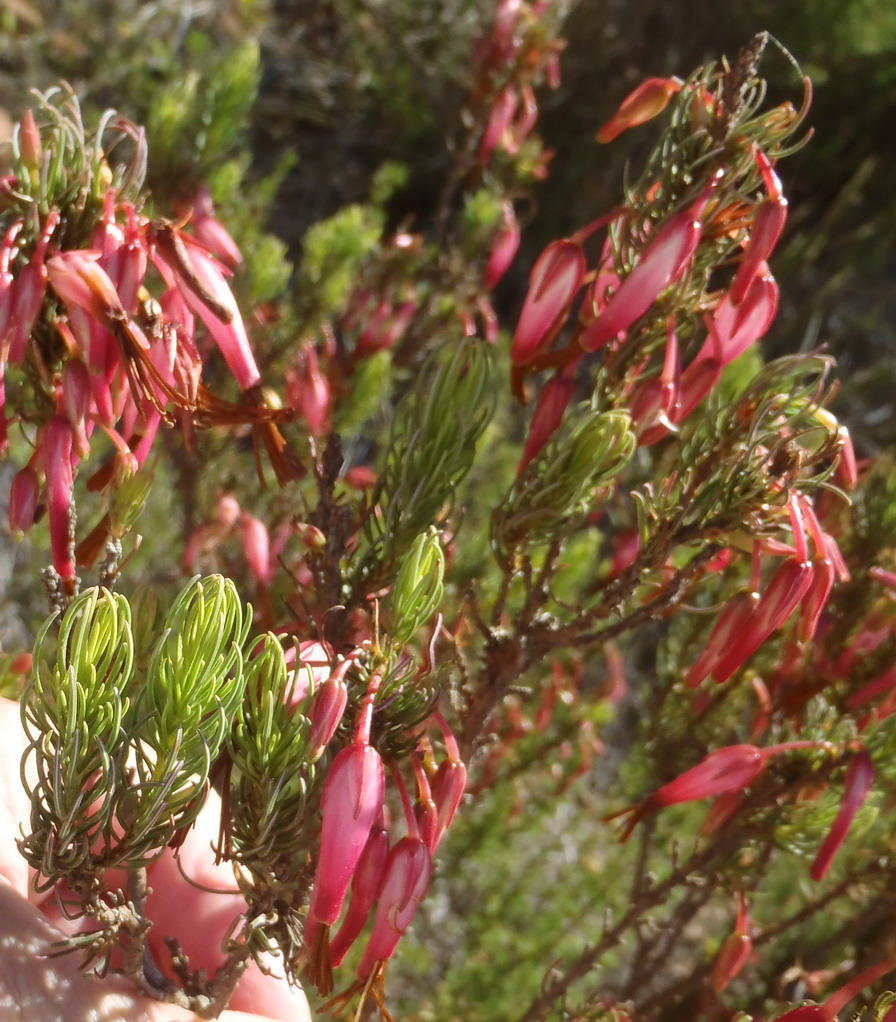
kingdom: Plantae
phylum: Tracheophyta
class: Magnoliopsida
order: Ericales
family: Ericaceae
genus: Erica
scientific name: Erica plukenetii
